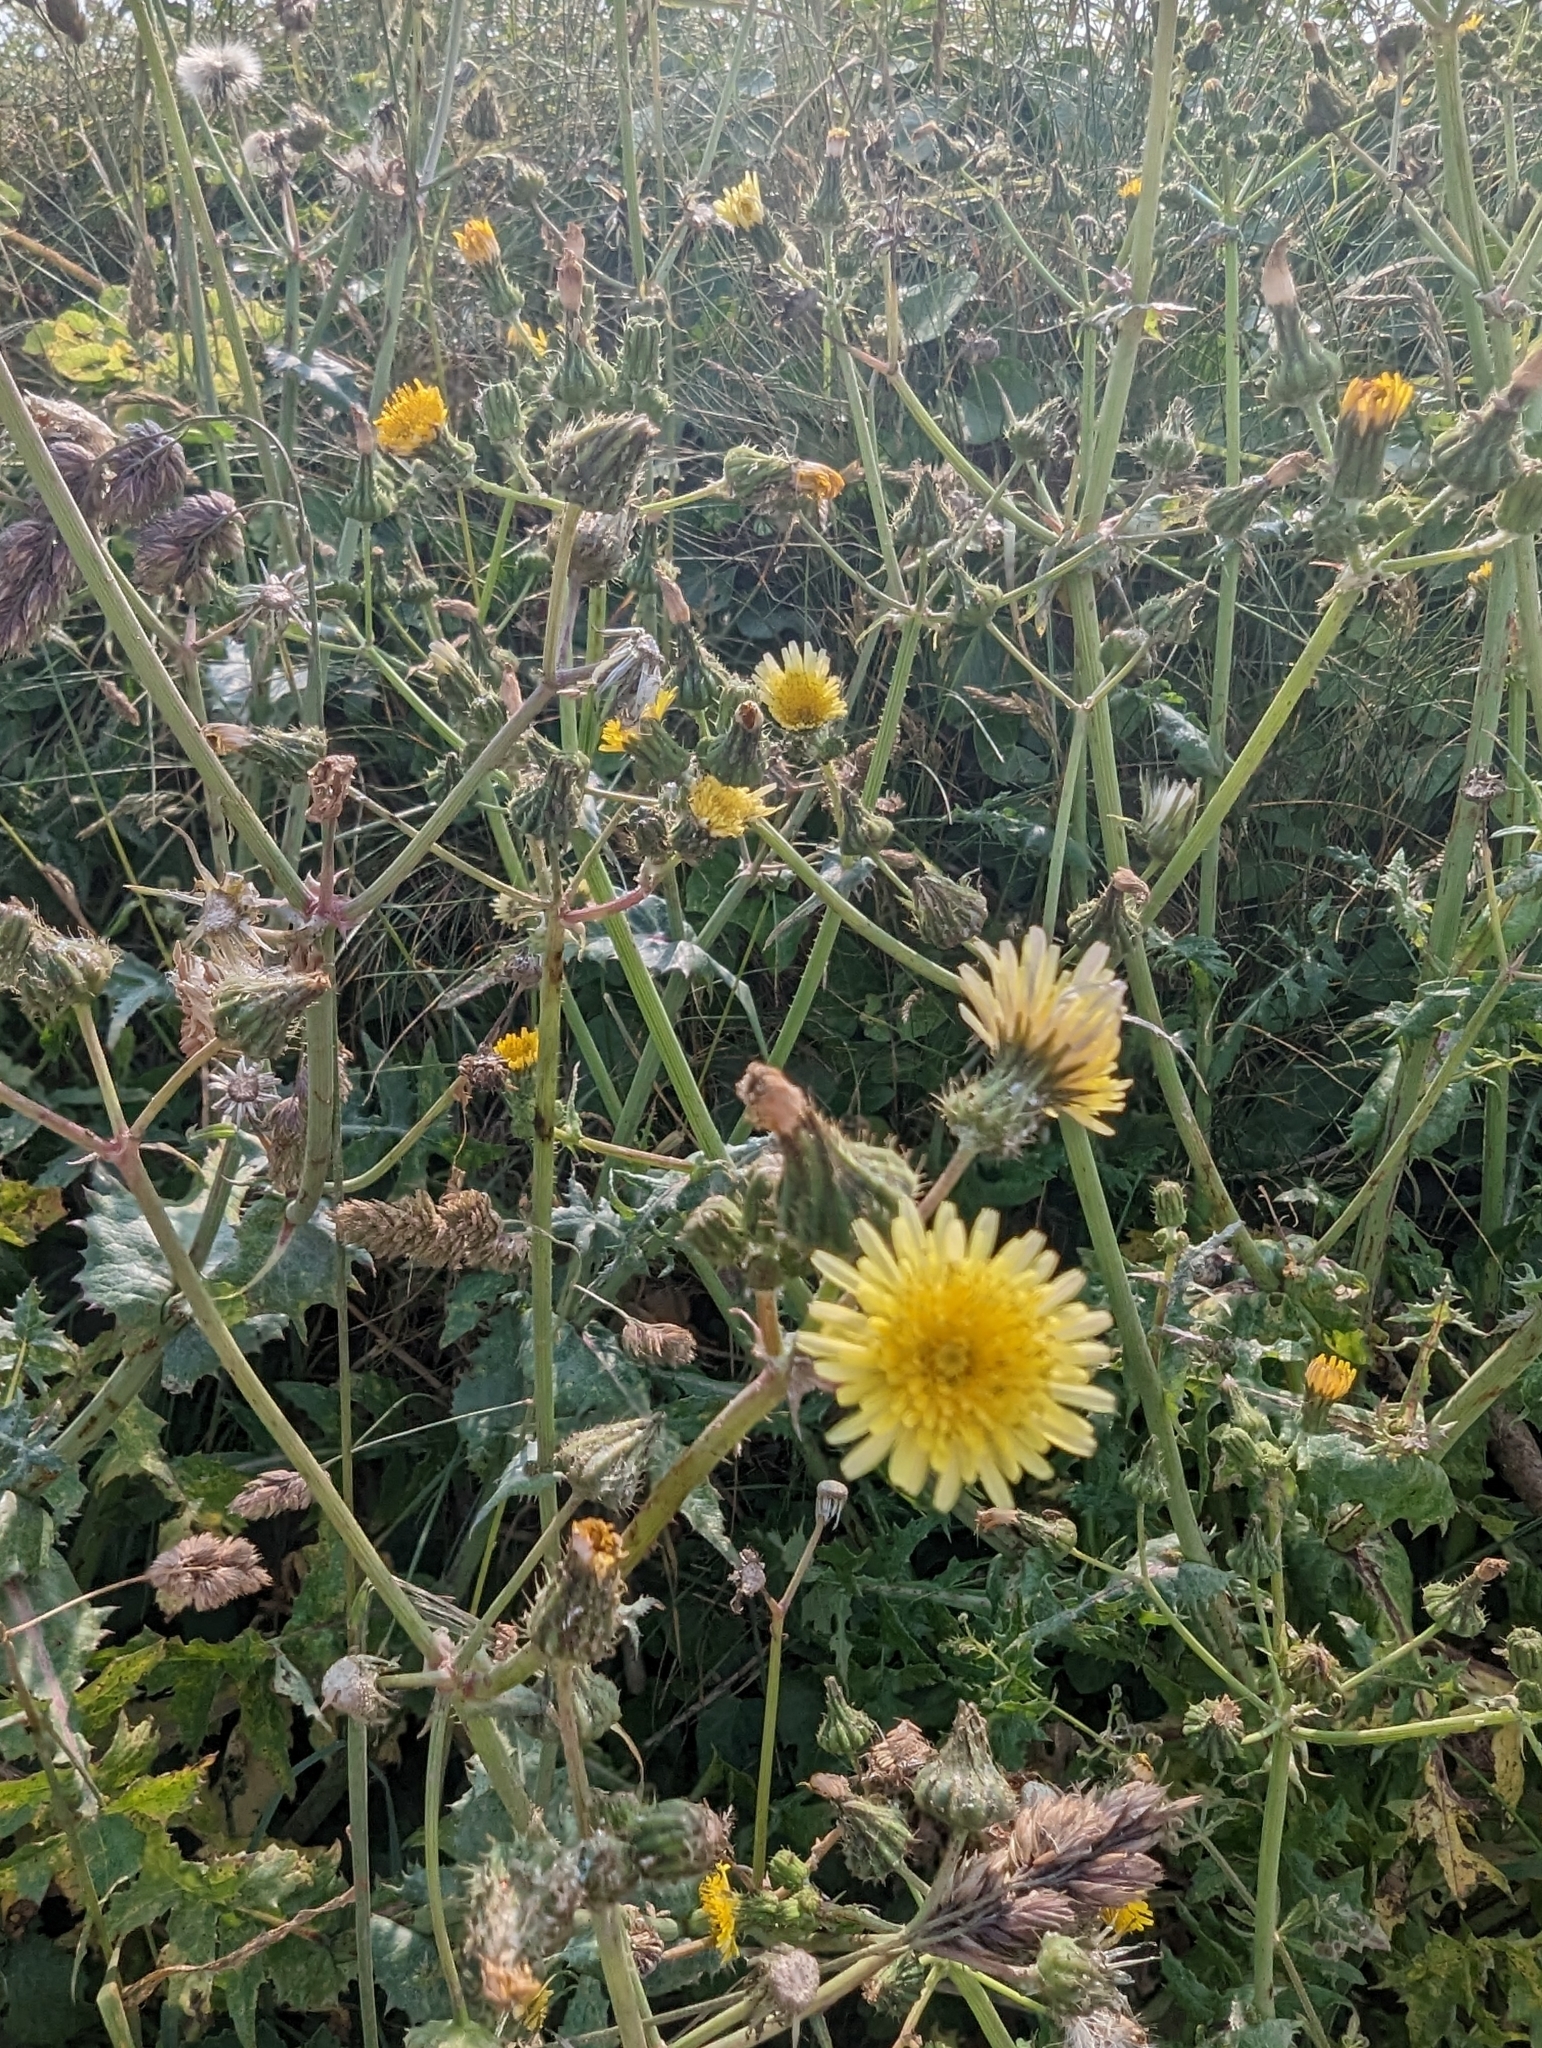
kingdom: Plantae
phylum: Tracheophyta
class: Magnoliopsida
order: Asterales
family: Asteraceae
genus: Sonchus
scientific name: Sonchus oleraceus
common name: Common sowthistle
